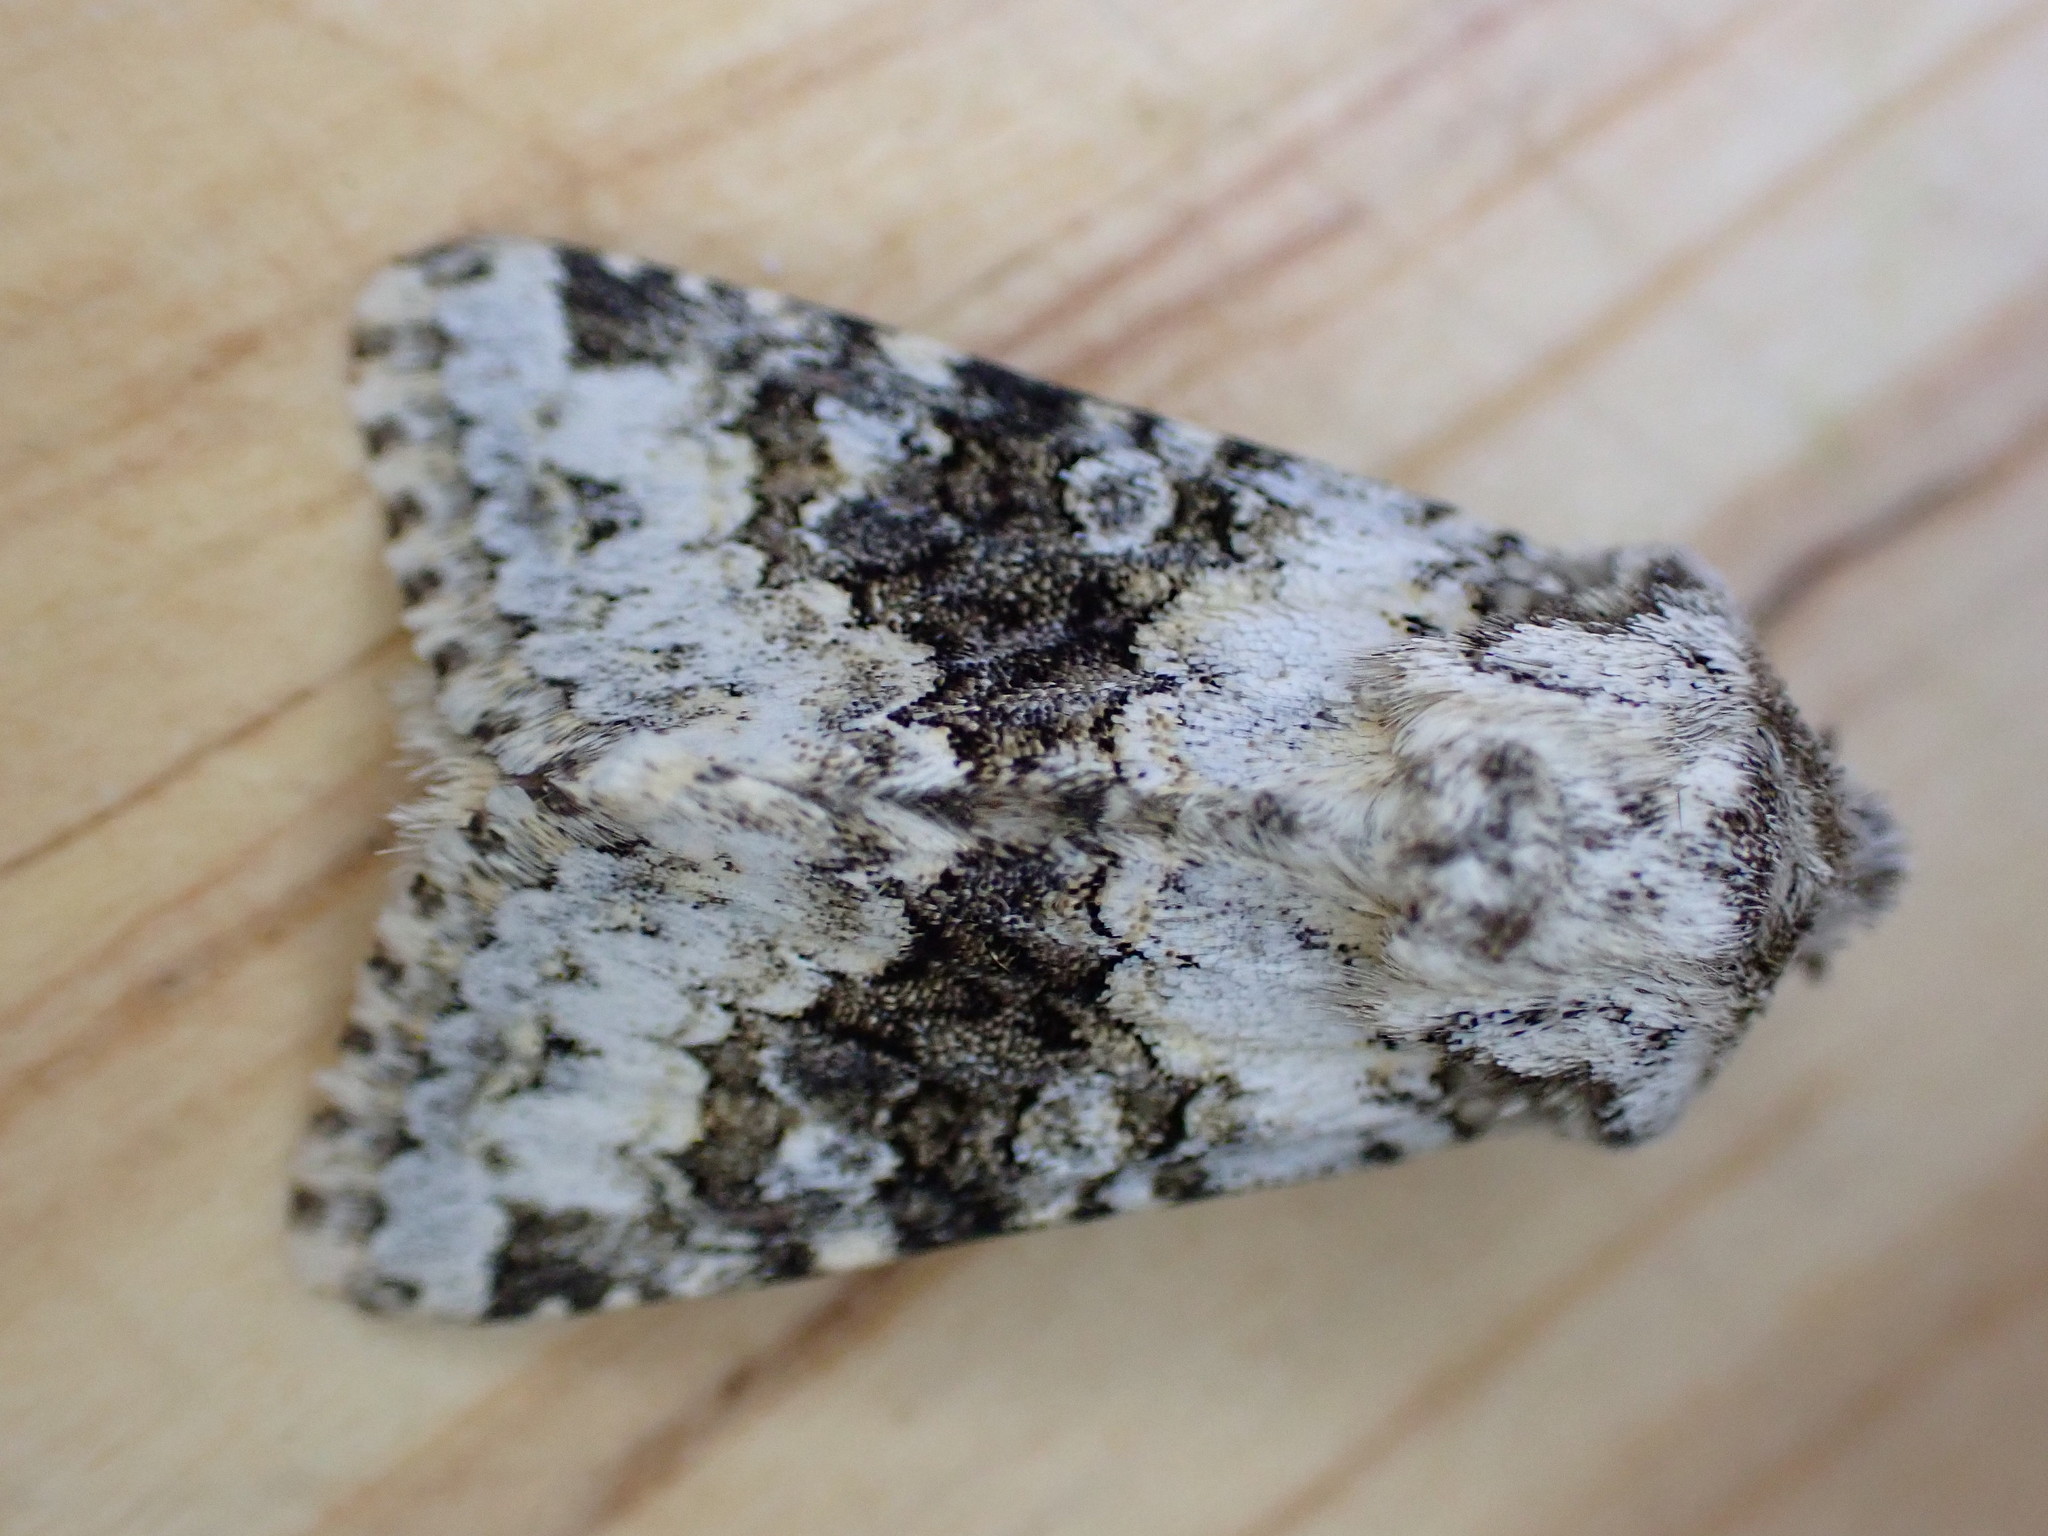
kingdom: Animalia
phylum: Arthropoda
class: Insecta
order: Lepidoptera
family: Noctuidae
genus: Hecatera
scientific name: Hecatera bicolorata
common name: Broad-barred white
